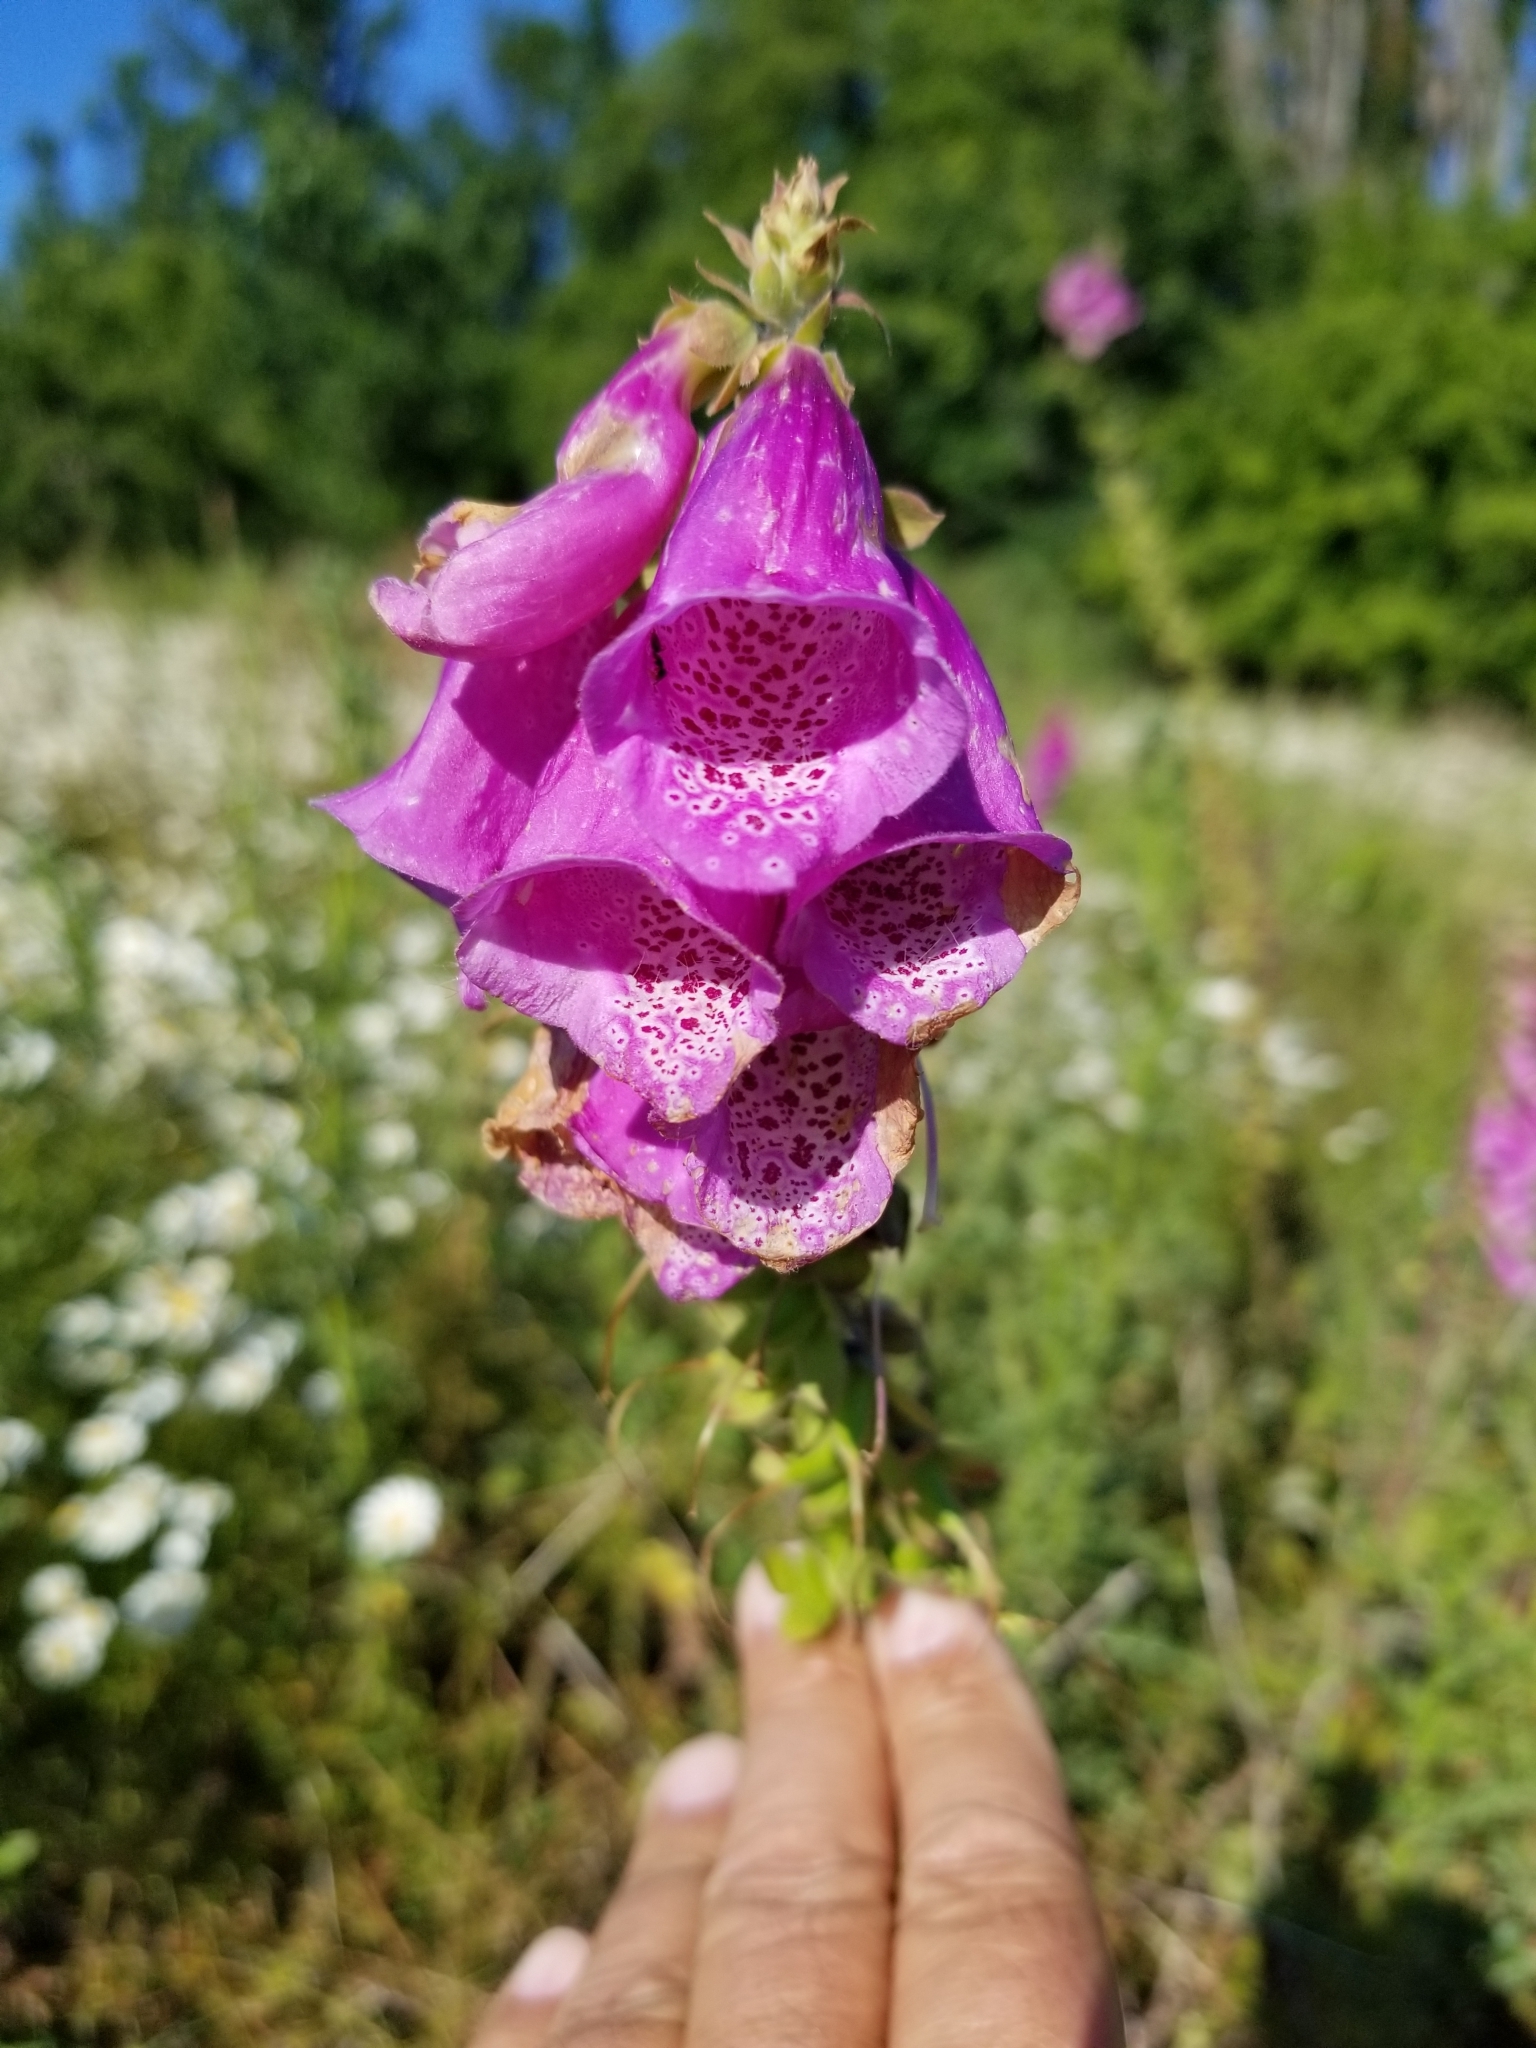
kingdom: Plantae
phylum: Tracheophyta
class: Magnoliopsida
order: Lamiales
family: Plantaginaceae
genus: Digitalis
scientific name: Digitalis purpurea
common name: Foxglove
